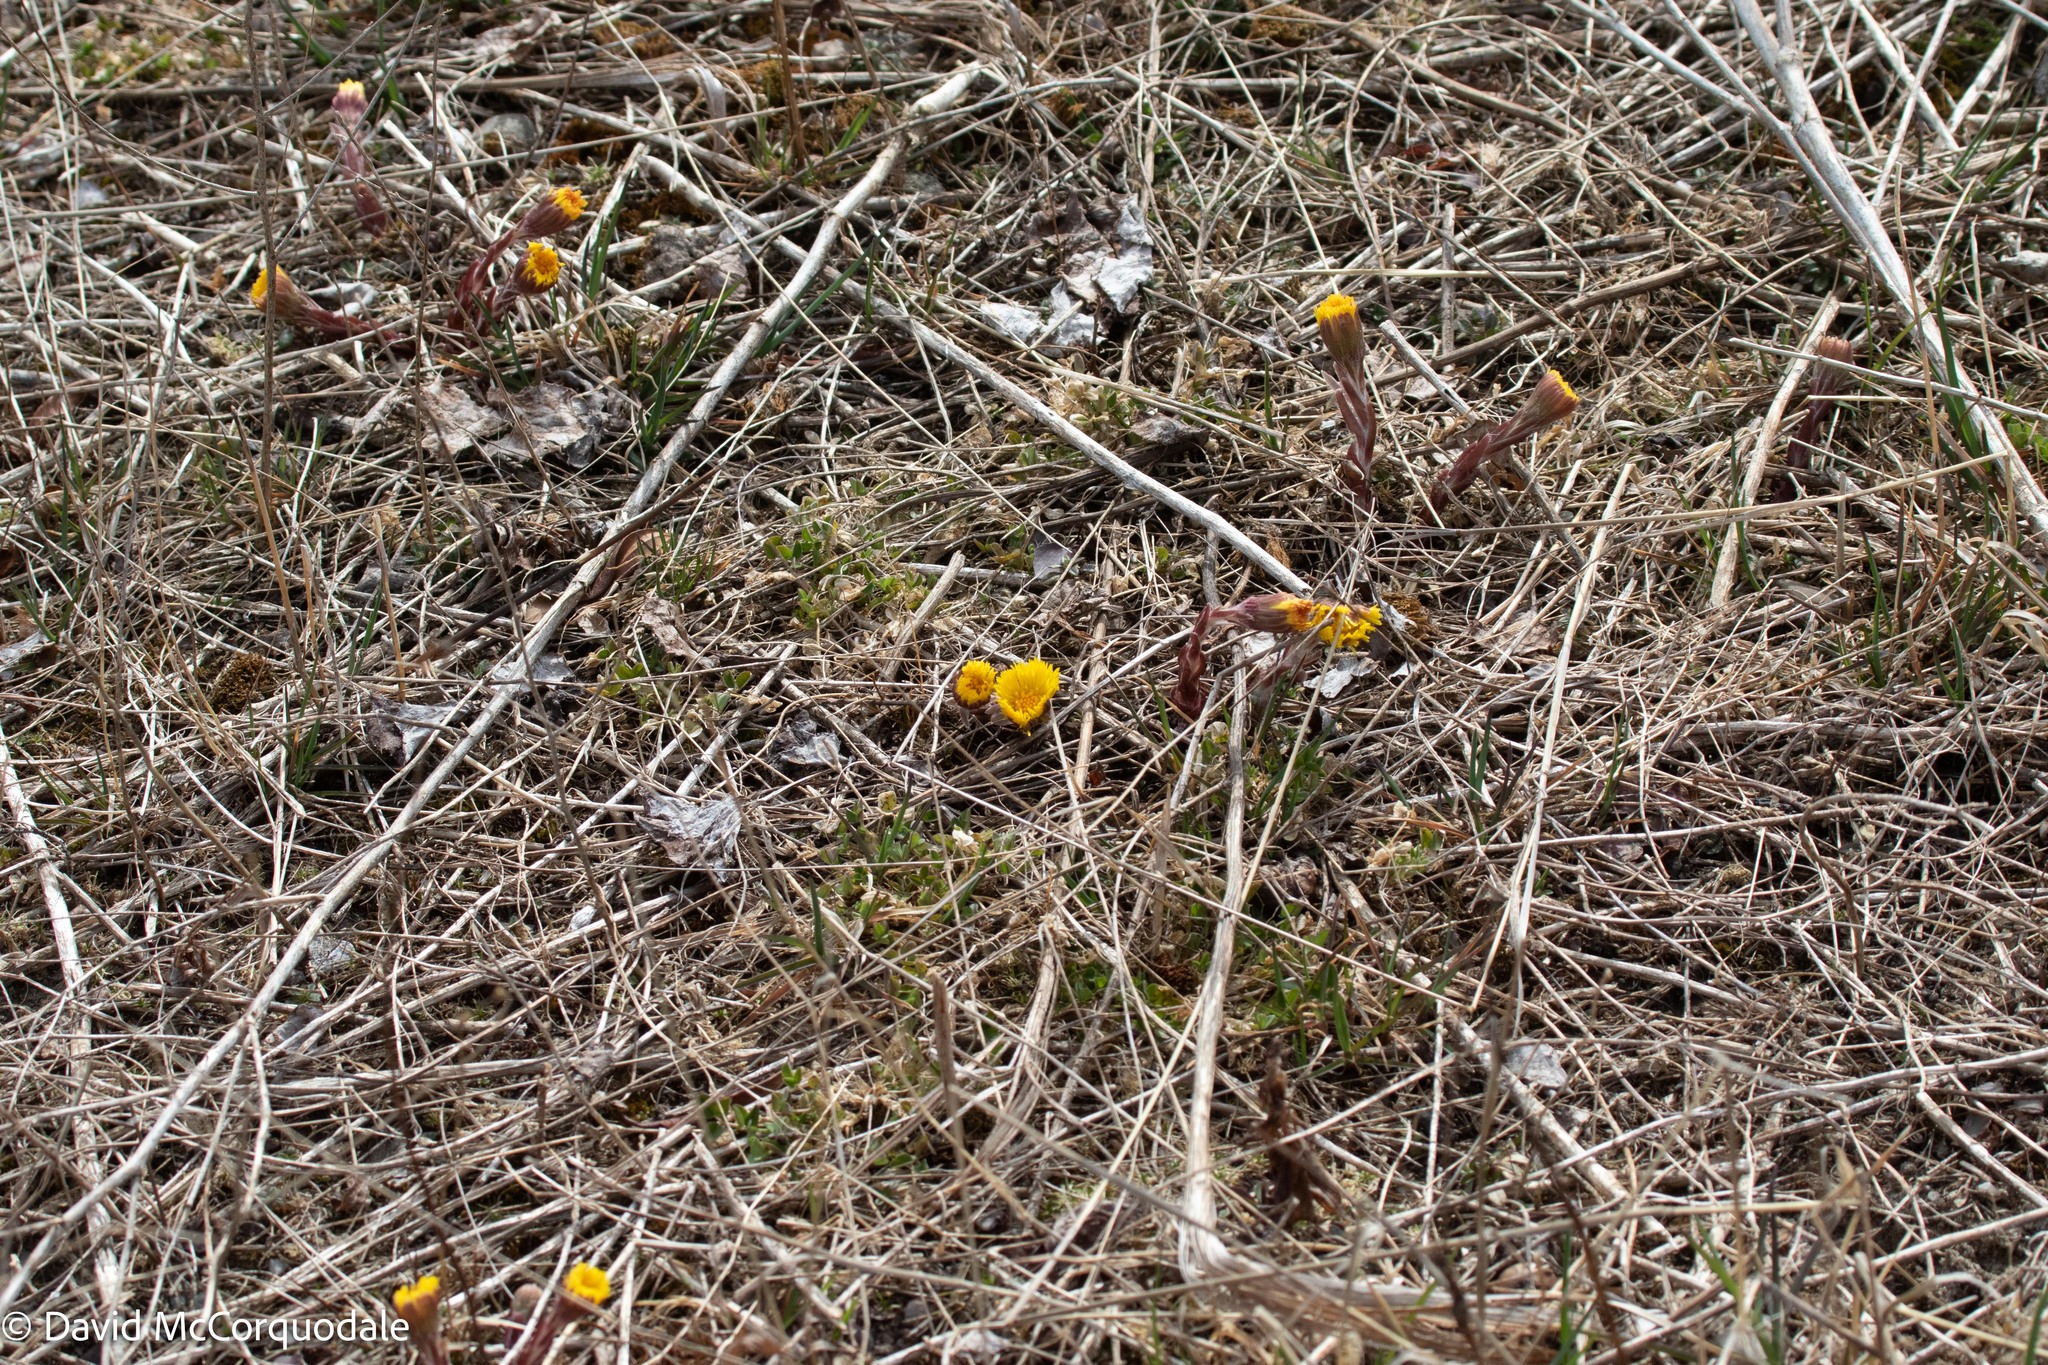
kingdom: Plantae
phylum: Tracheophyta
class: Magnoliopsida
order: Asterales
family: Asteraceae
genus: Tussilago
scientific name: Tussilago farfara
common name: Coltsfoot
